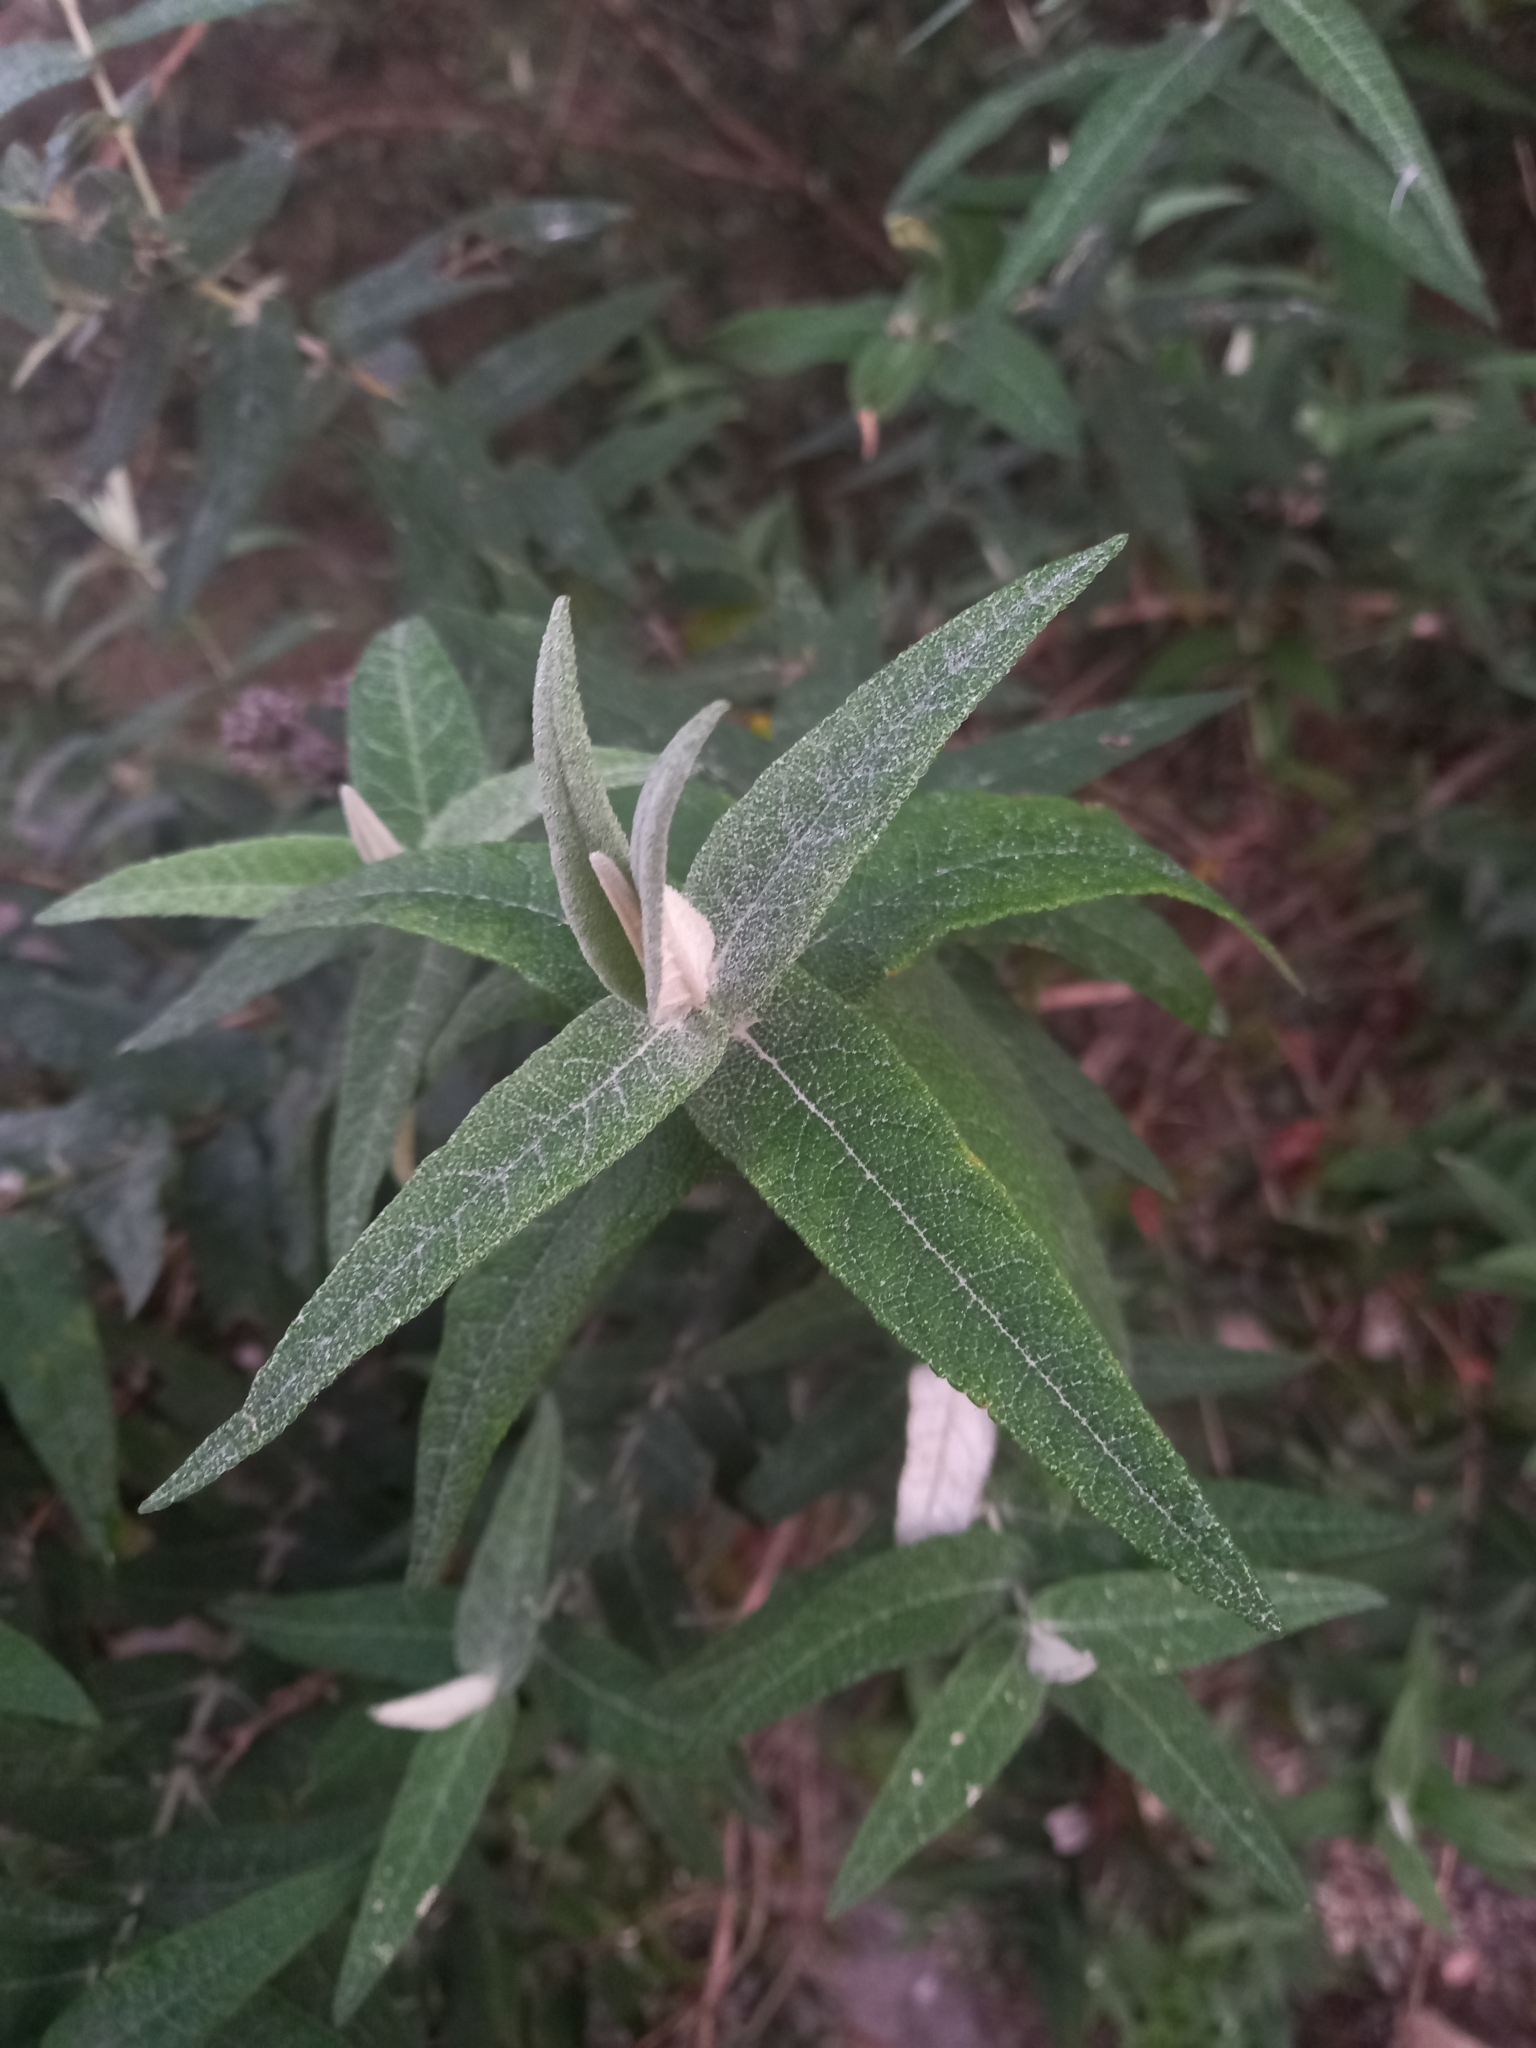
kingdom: Plantae
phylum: Tracheophyta
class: Magnoliopsida
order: Lamiales
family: Scrophulariaceae
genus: Buddleja
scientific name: Buddleja salviifolia
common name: Sagewood
